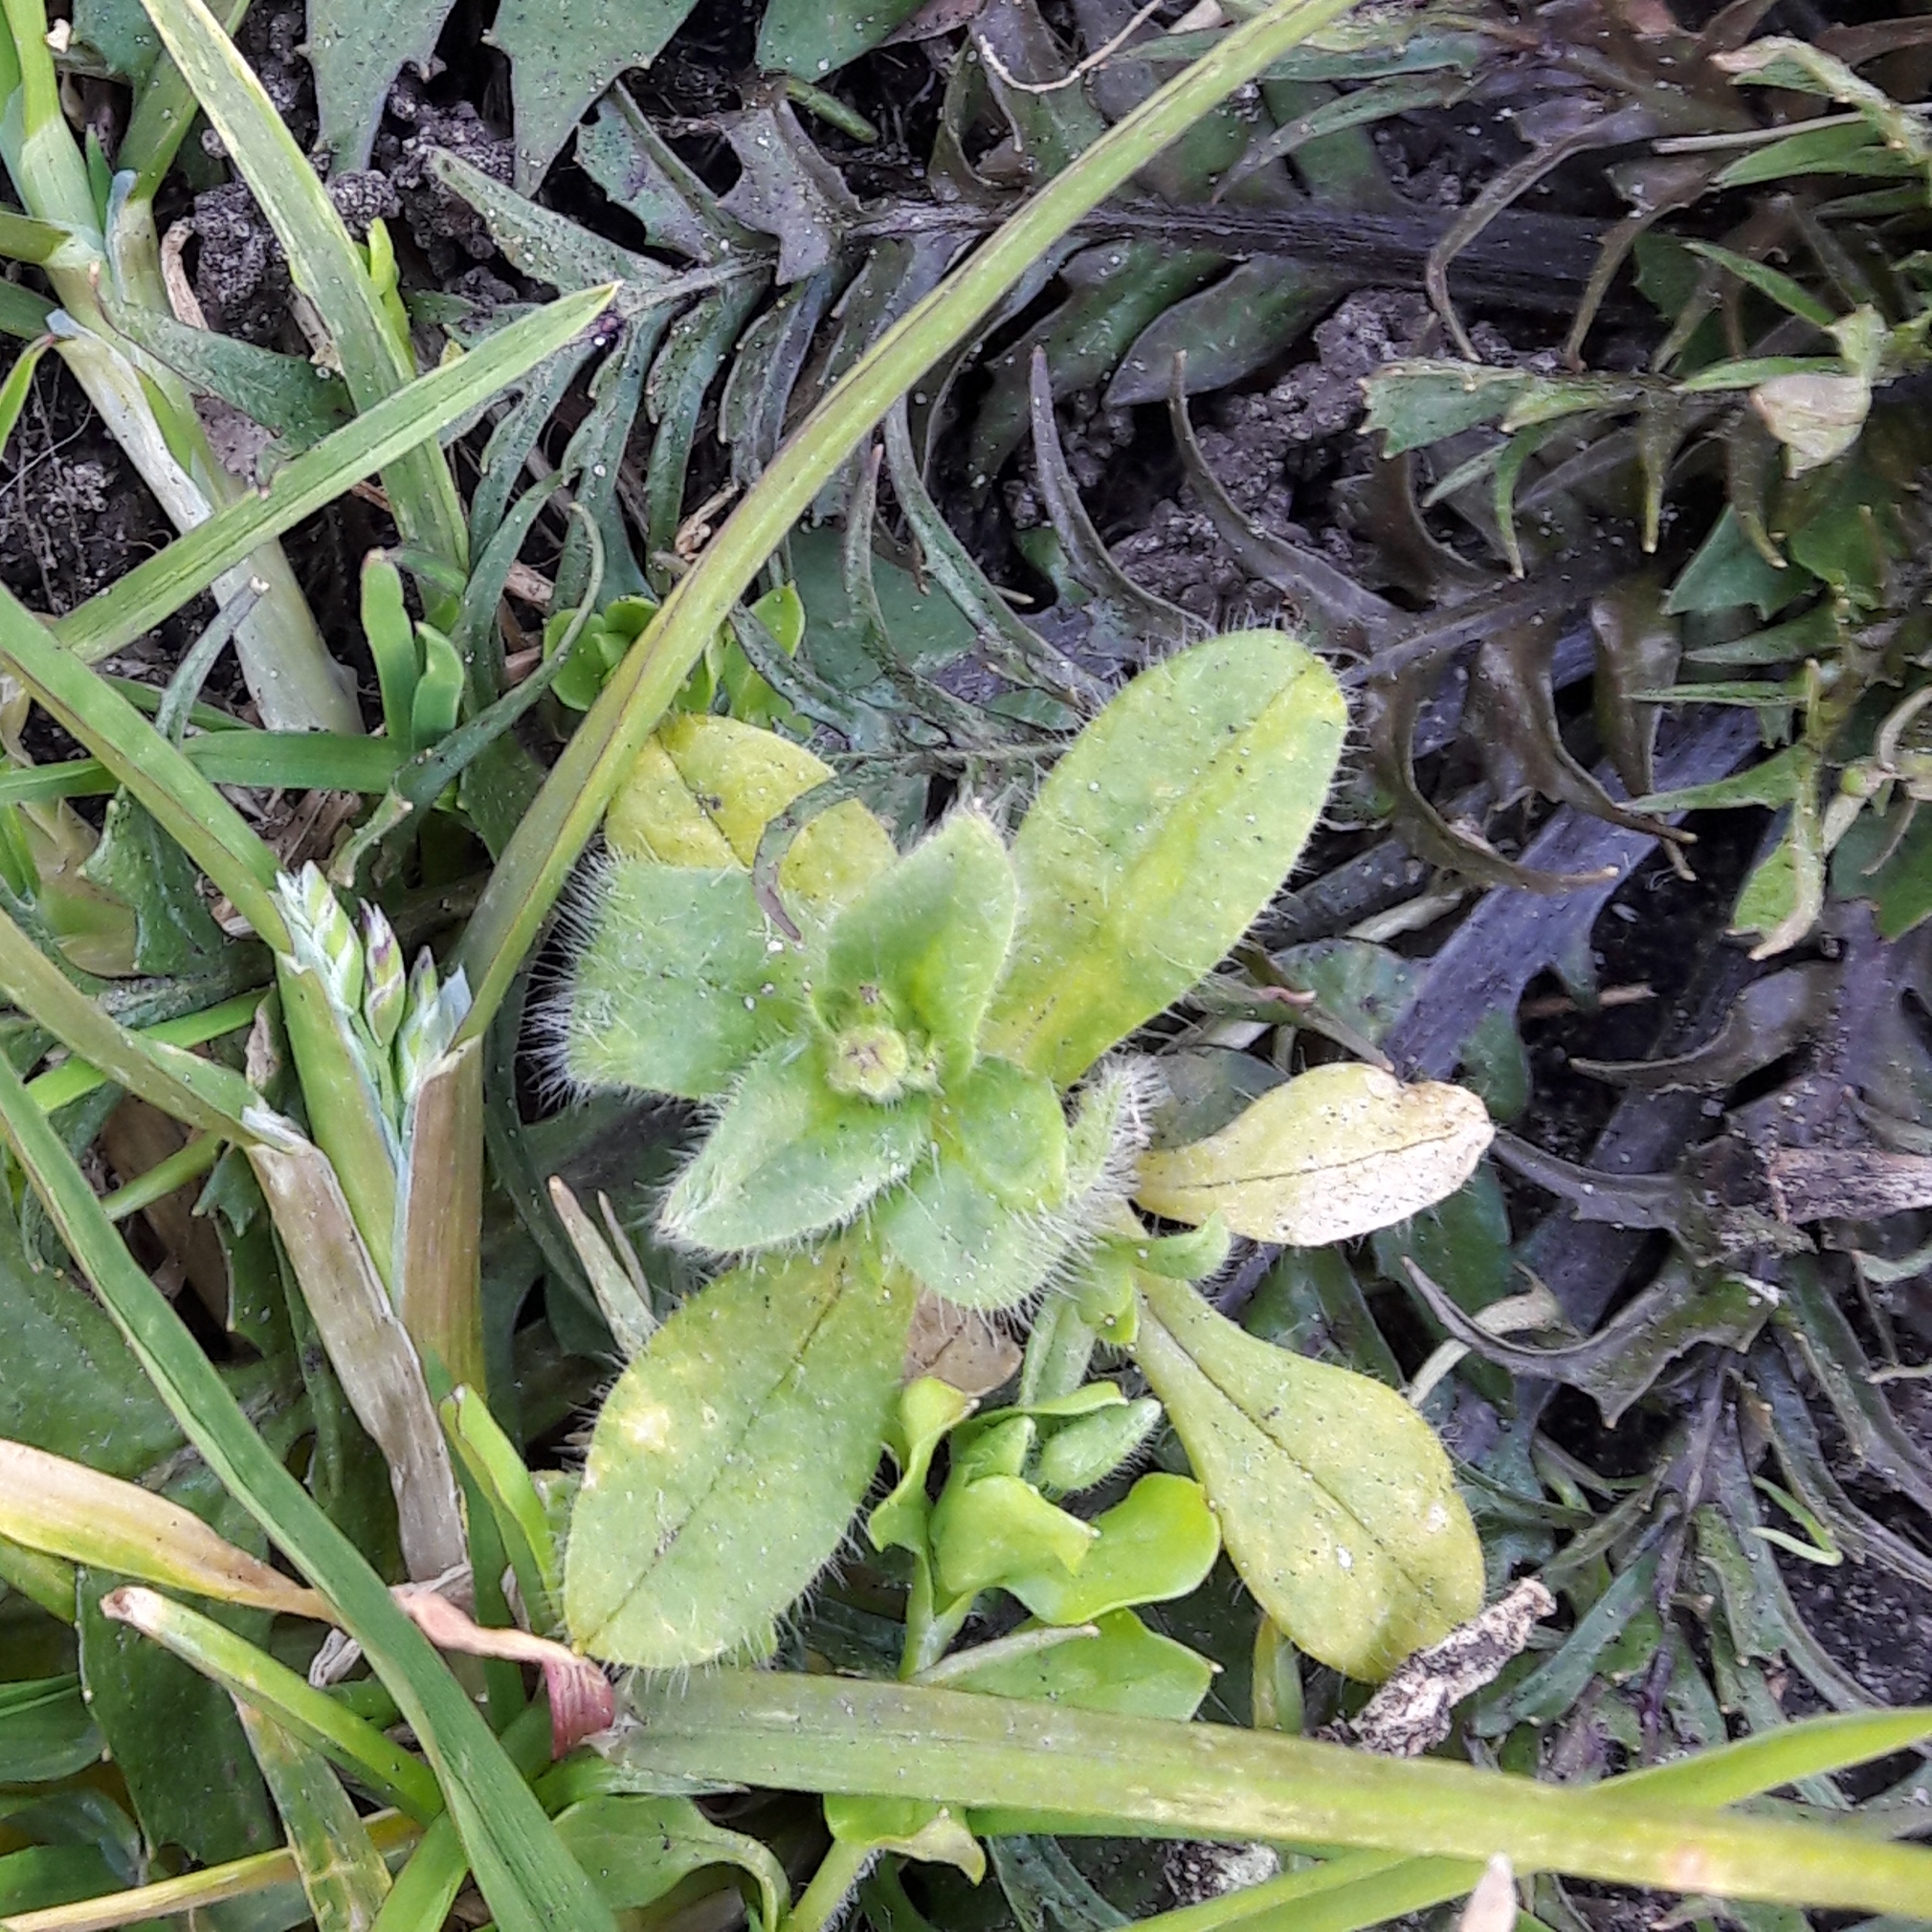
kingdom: Plantae
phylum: Tracheophyta
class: Magnoliopsida
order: Caryophyllales
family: Caryophyllaceae
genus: Cerastium
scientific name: Cerastium glomeratum
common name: Sticky chickweed
